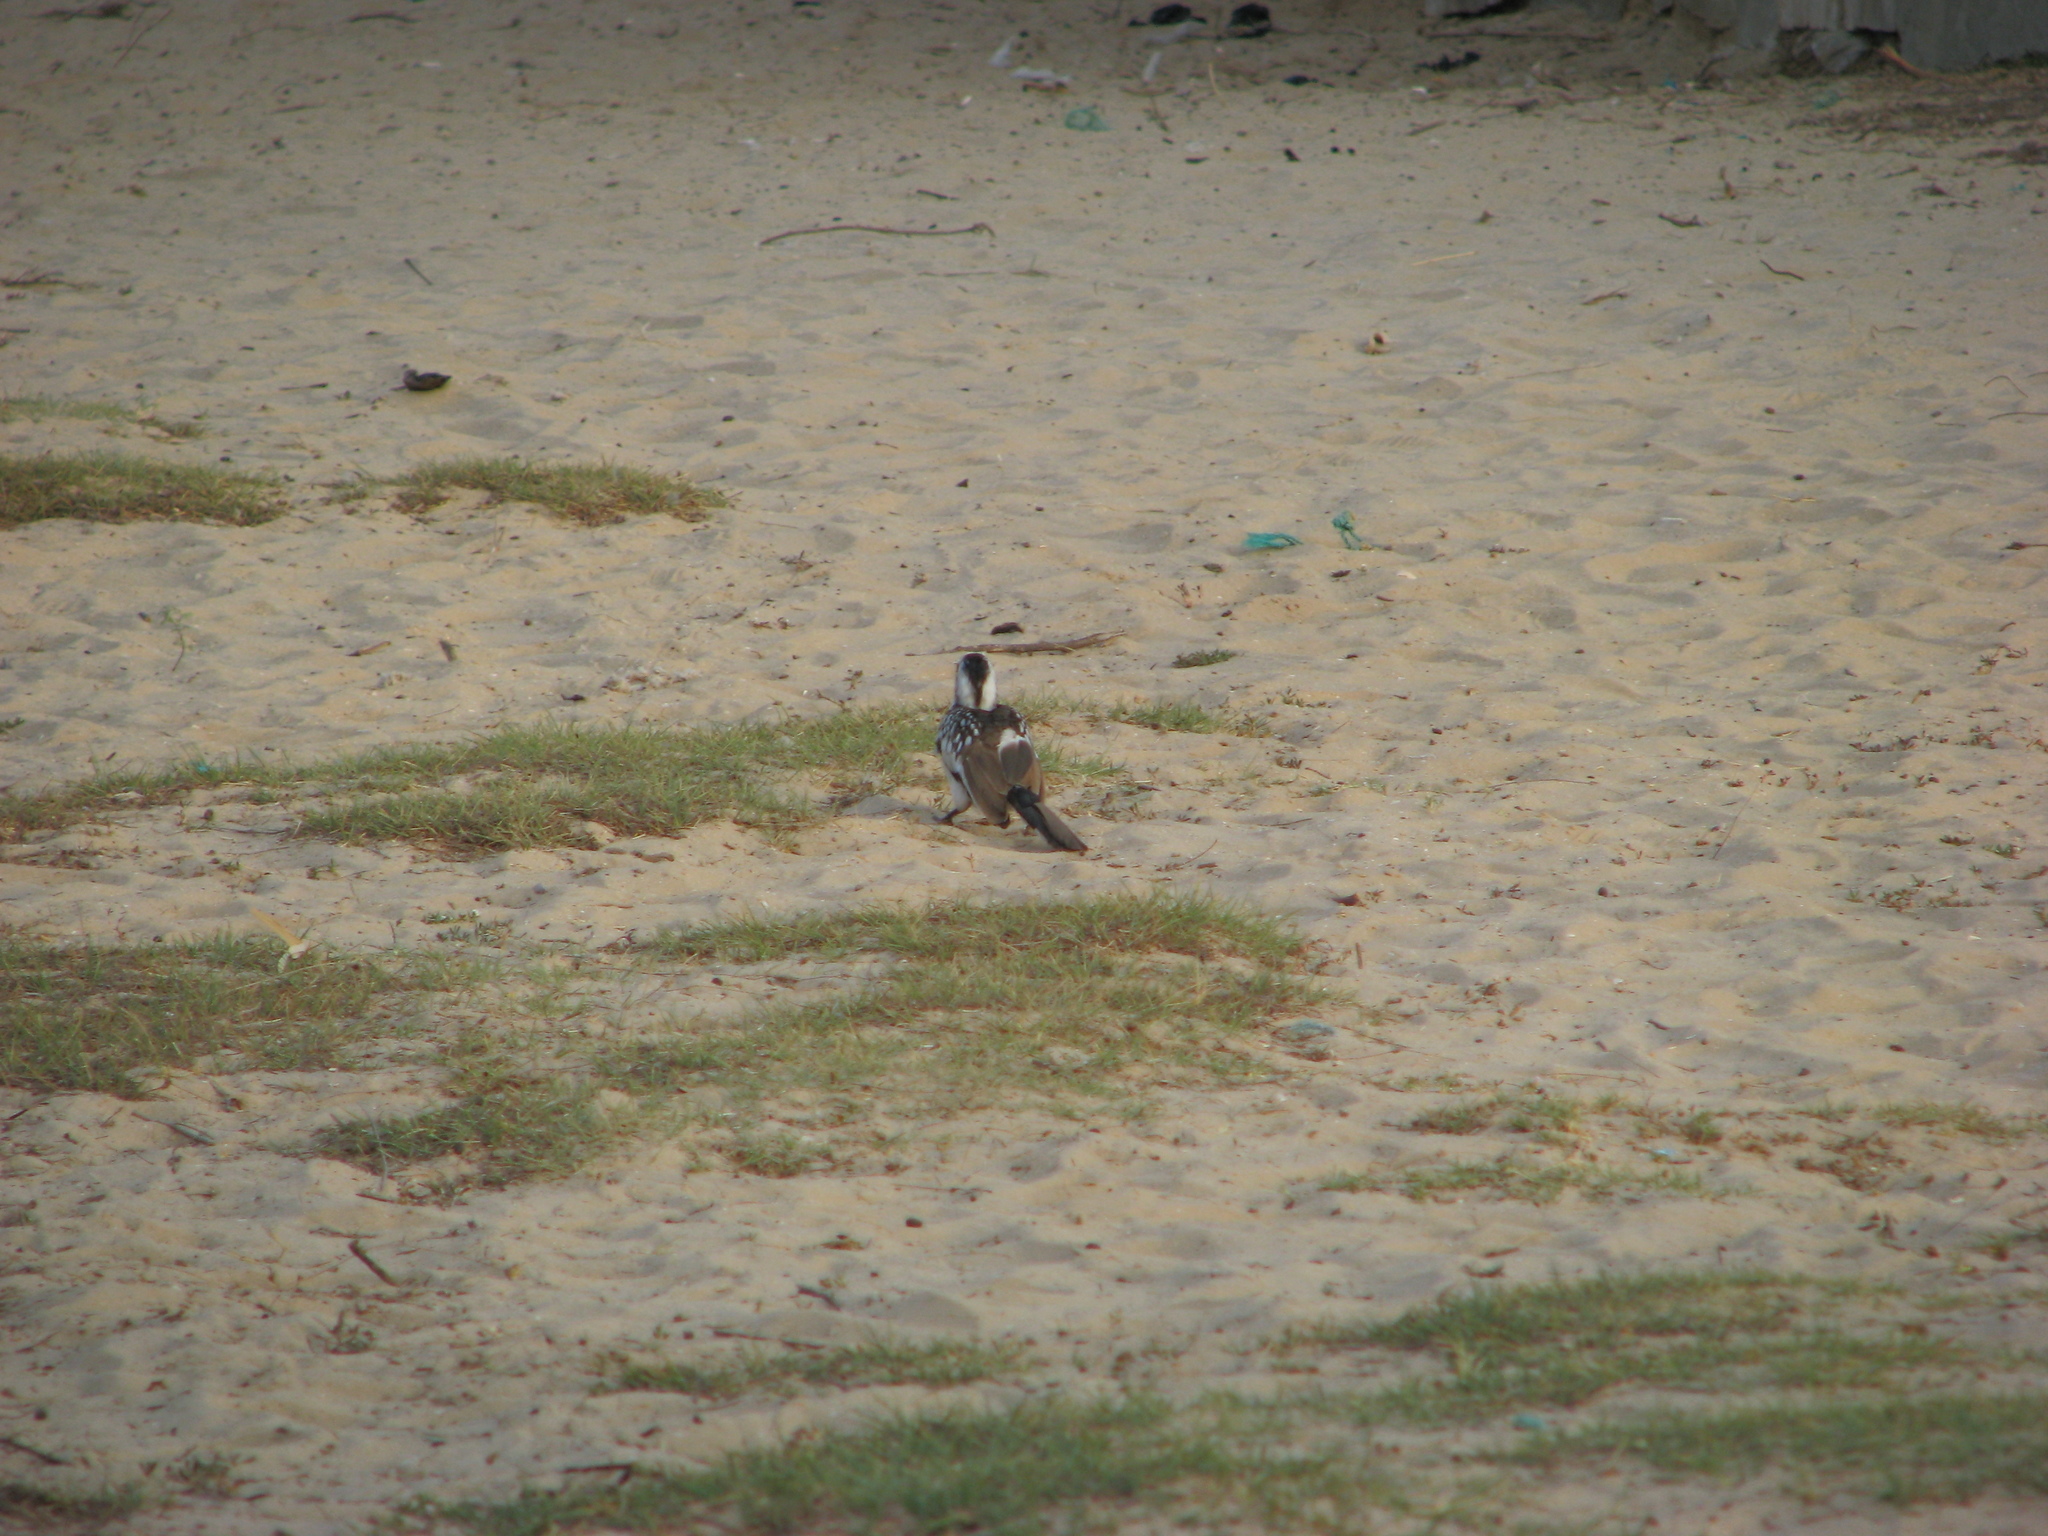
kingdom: Animalia
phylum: Chordata
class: Aves
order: Bucerotiformes
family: Bucerotidae
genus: Tockus
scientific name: Tockus kempi
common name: Western red-billed hornbill
